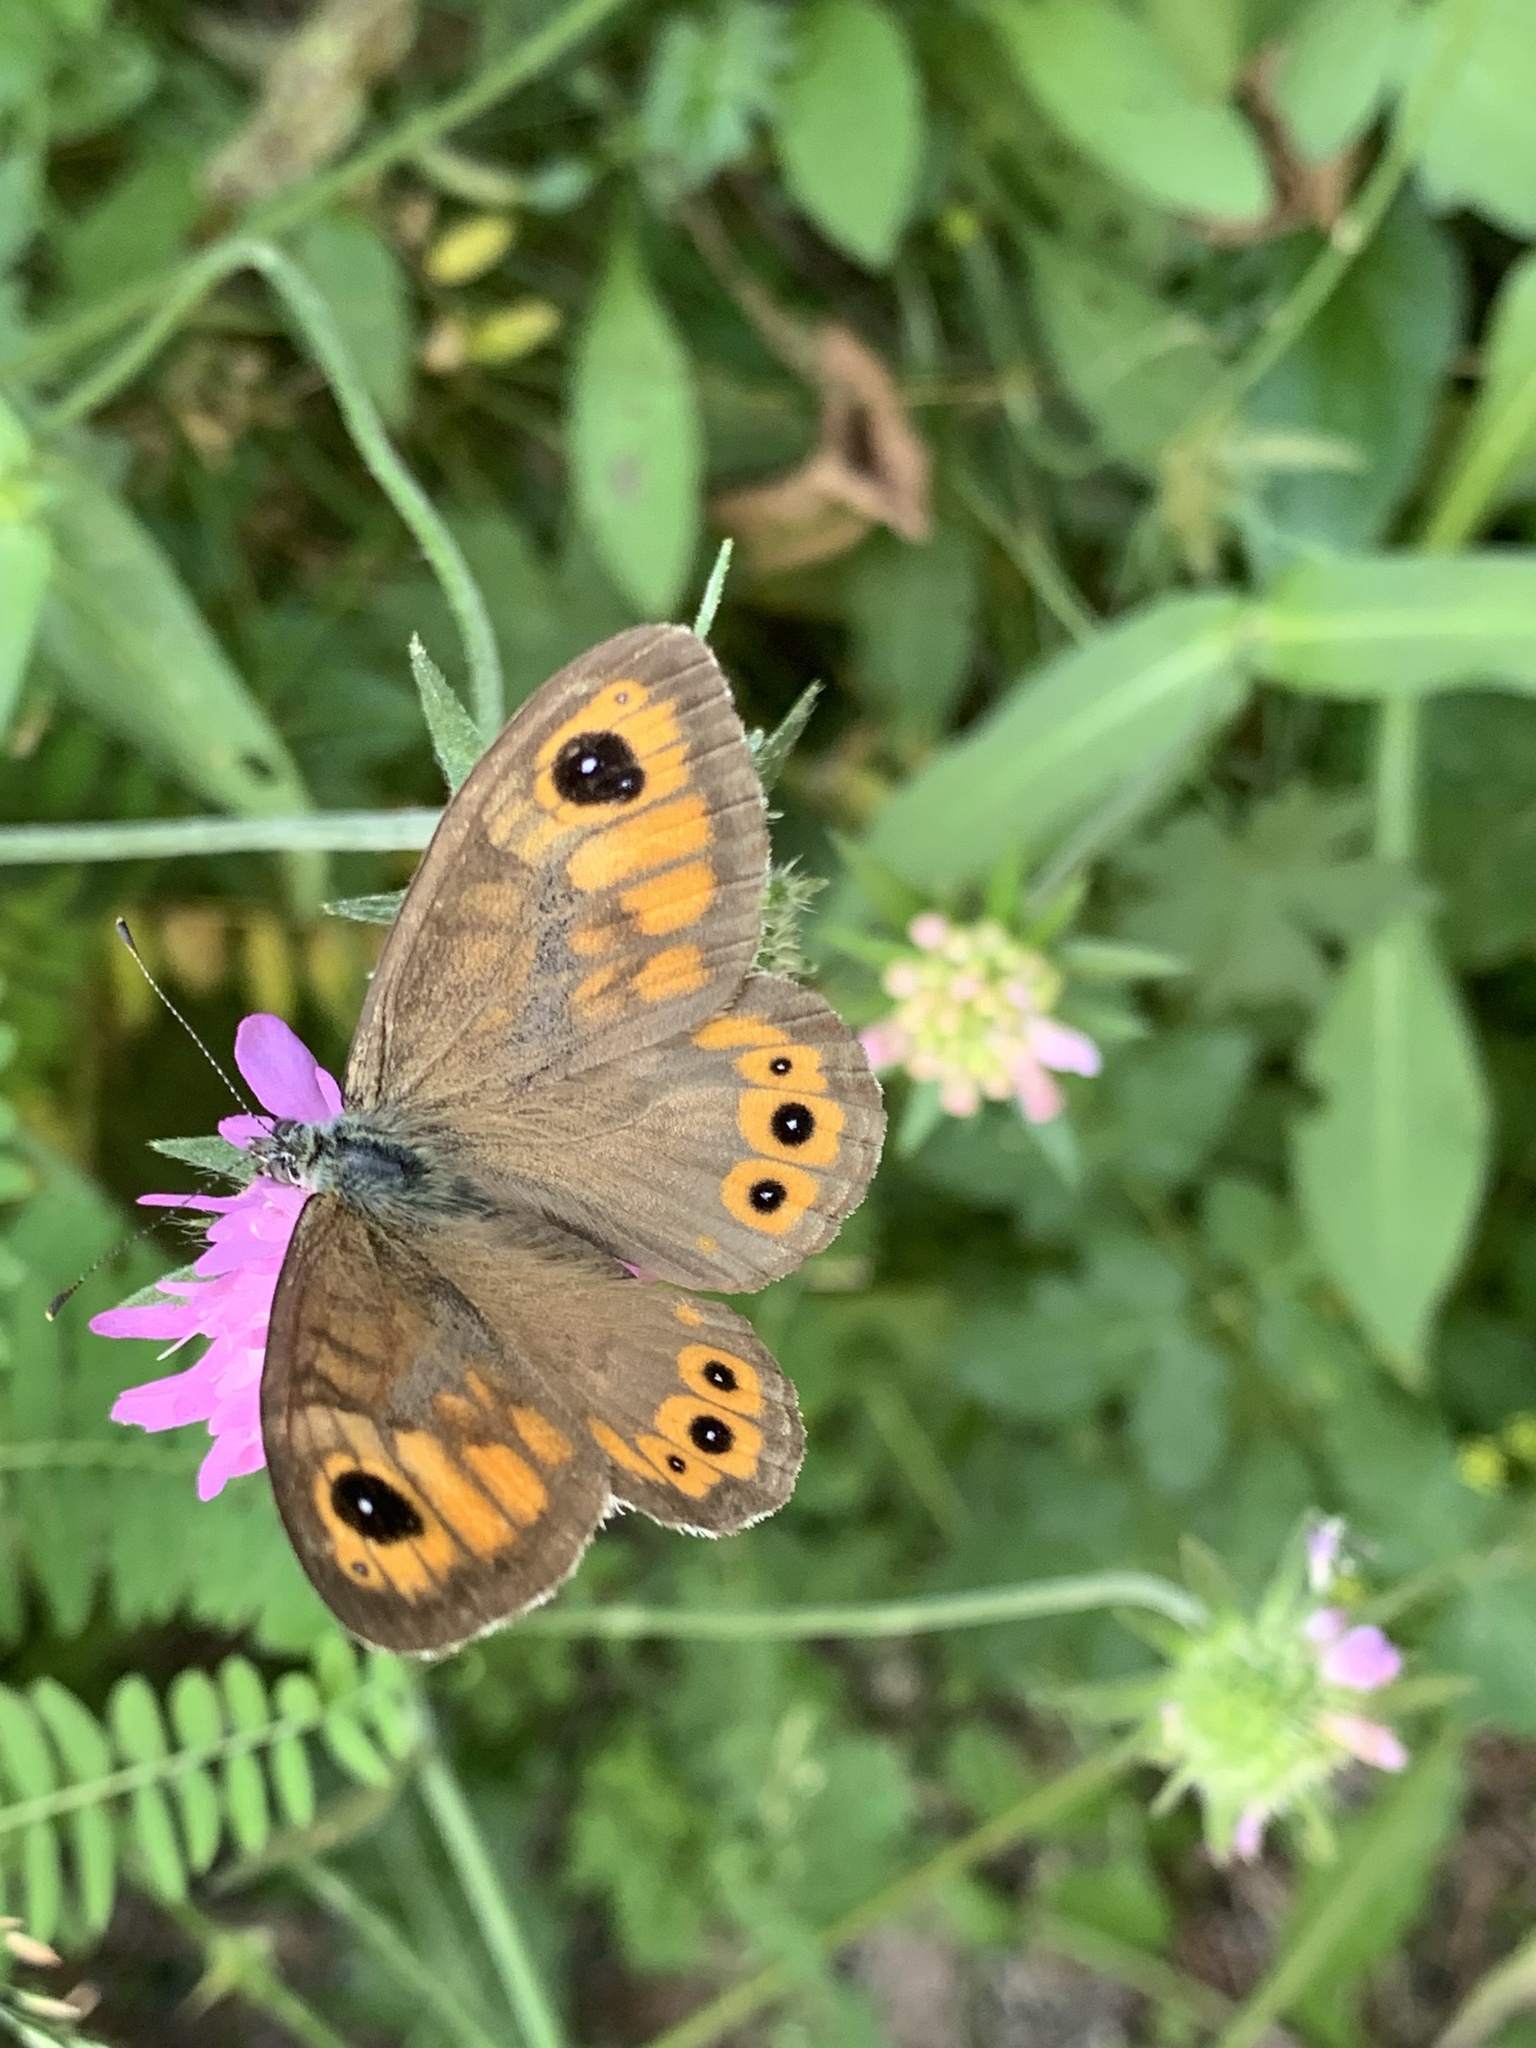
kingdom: Animalia
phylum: Arthropoda
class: Insecta
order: Lepidoptera
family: Nymphalidae
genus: Pararge
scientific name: Pararge Lasiommata maera
